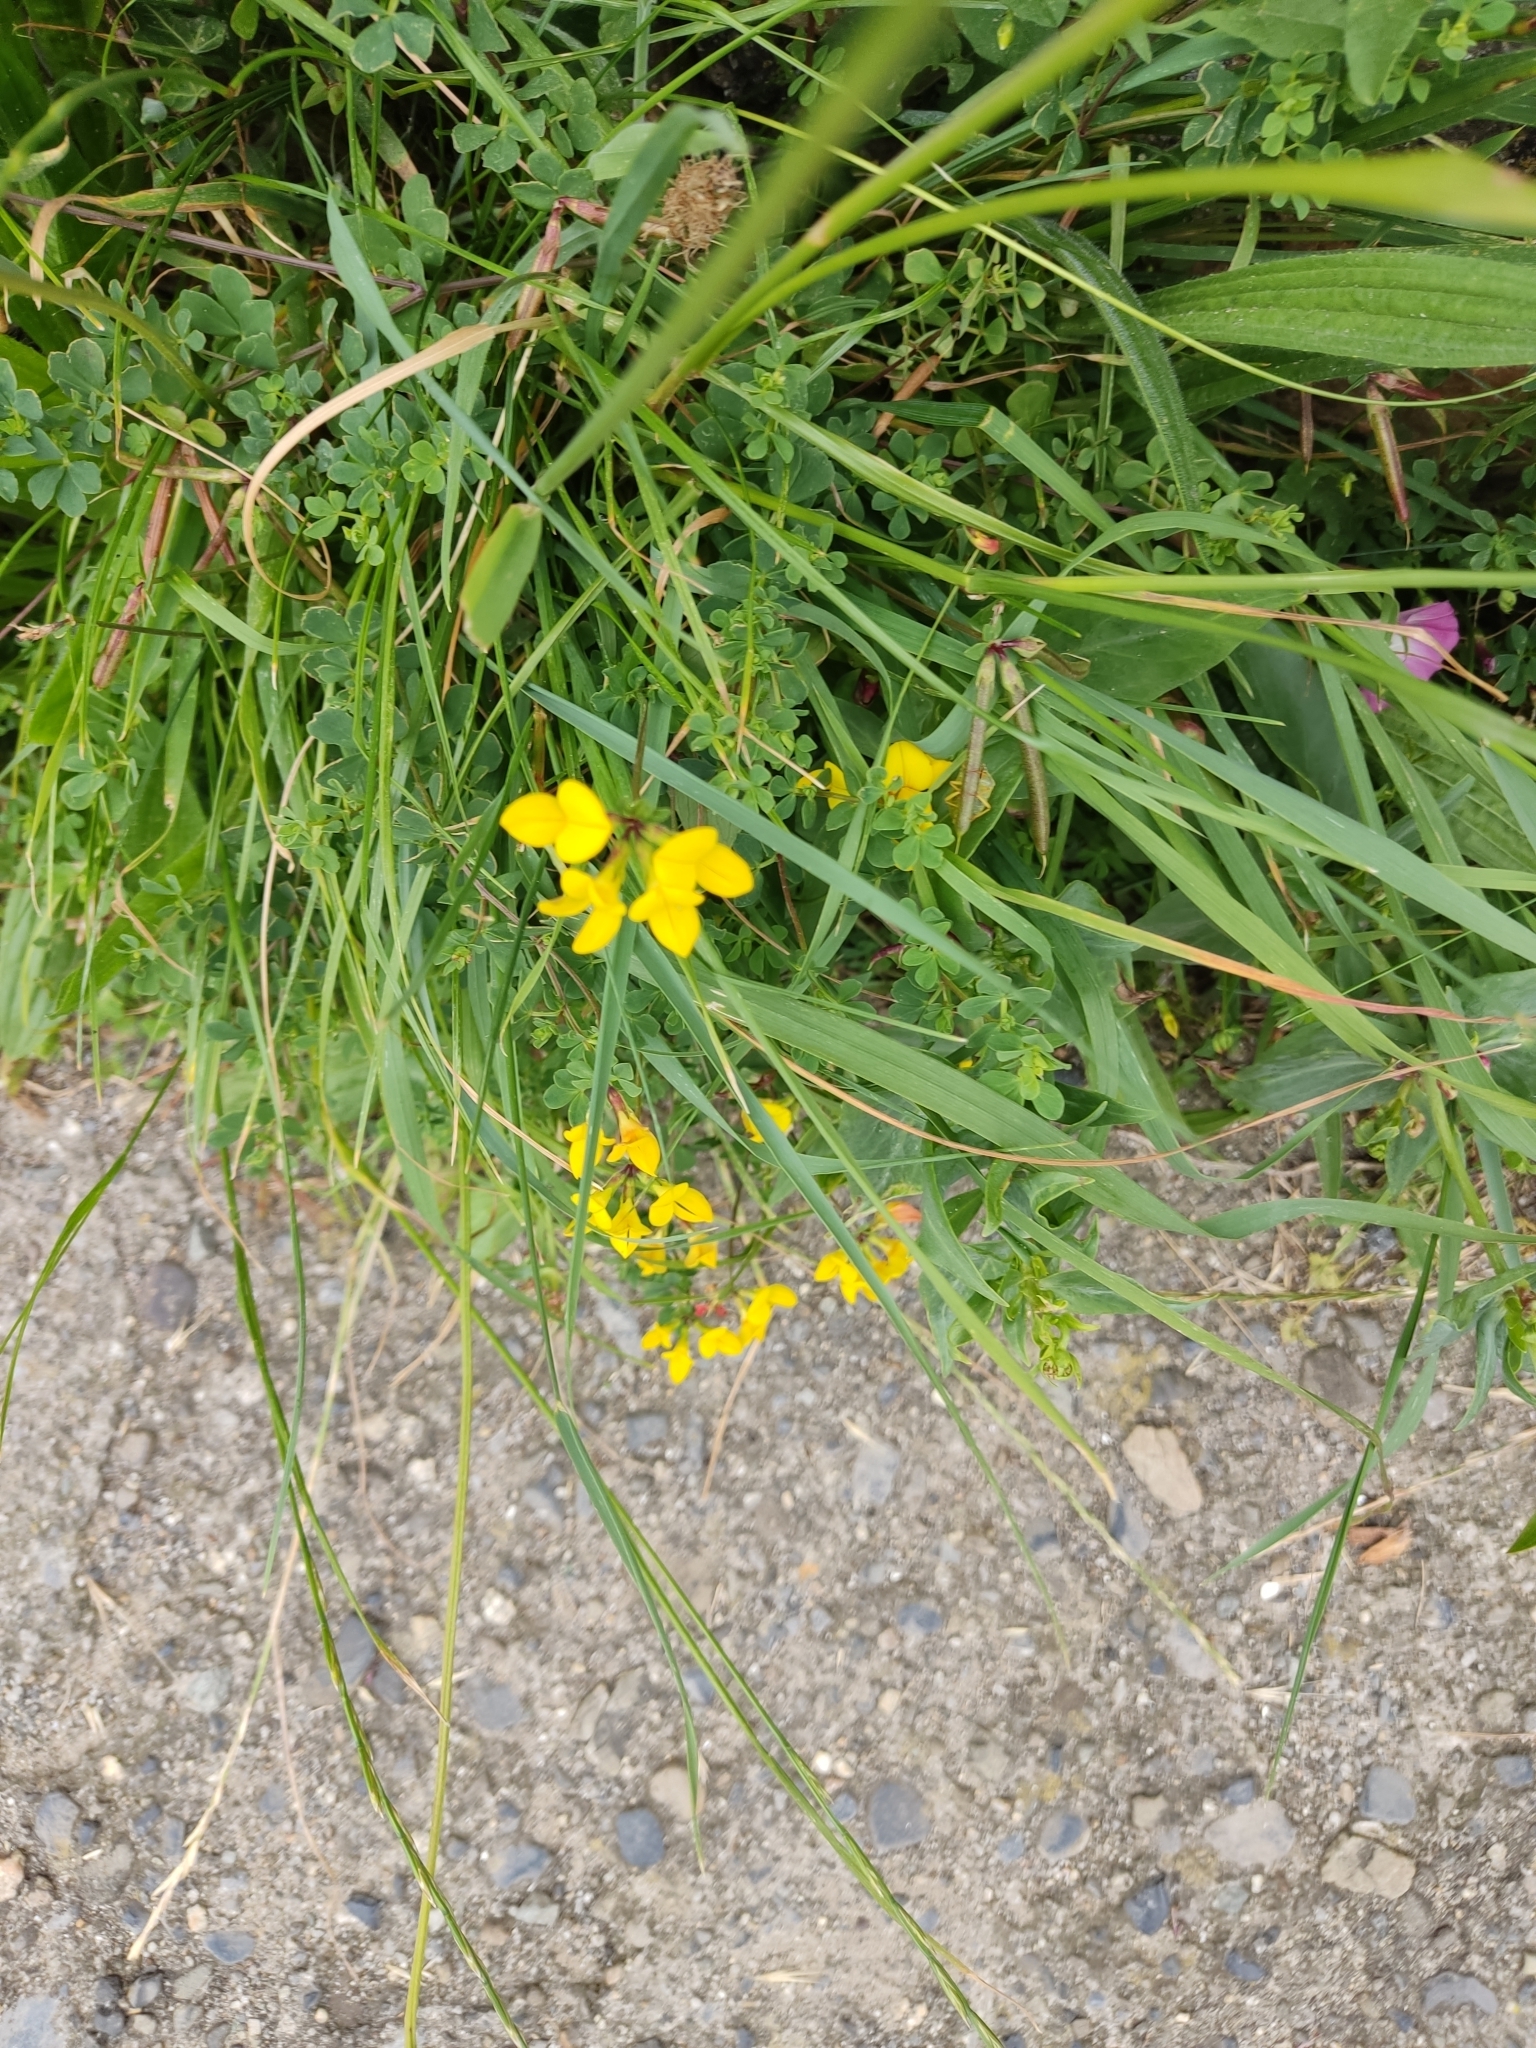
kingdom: Plantae
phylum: Tracheophyta
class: Magnoliopsida
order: Fabales
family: Fabaceae
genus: Lotus
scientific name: Lotus corniculatus
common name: Common bird's-foot-trefoil
